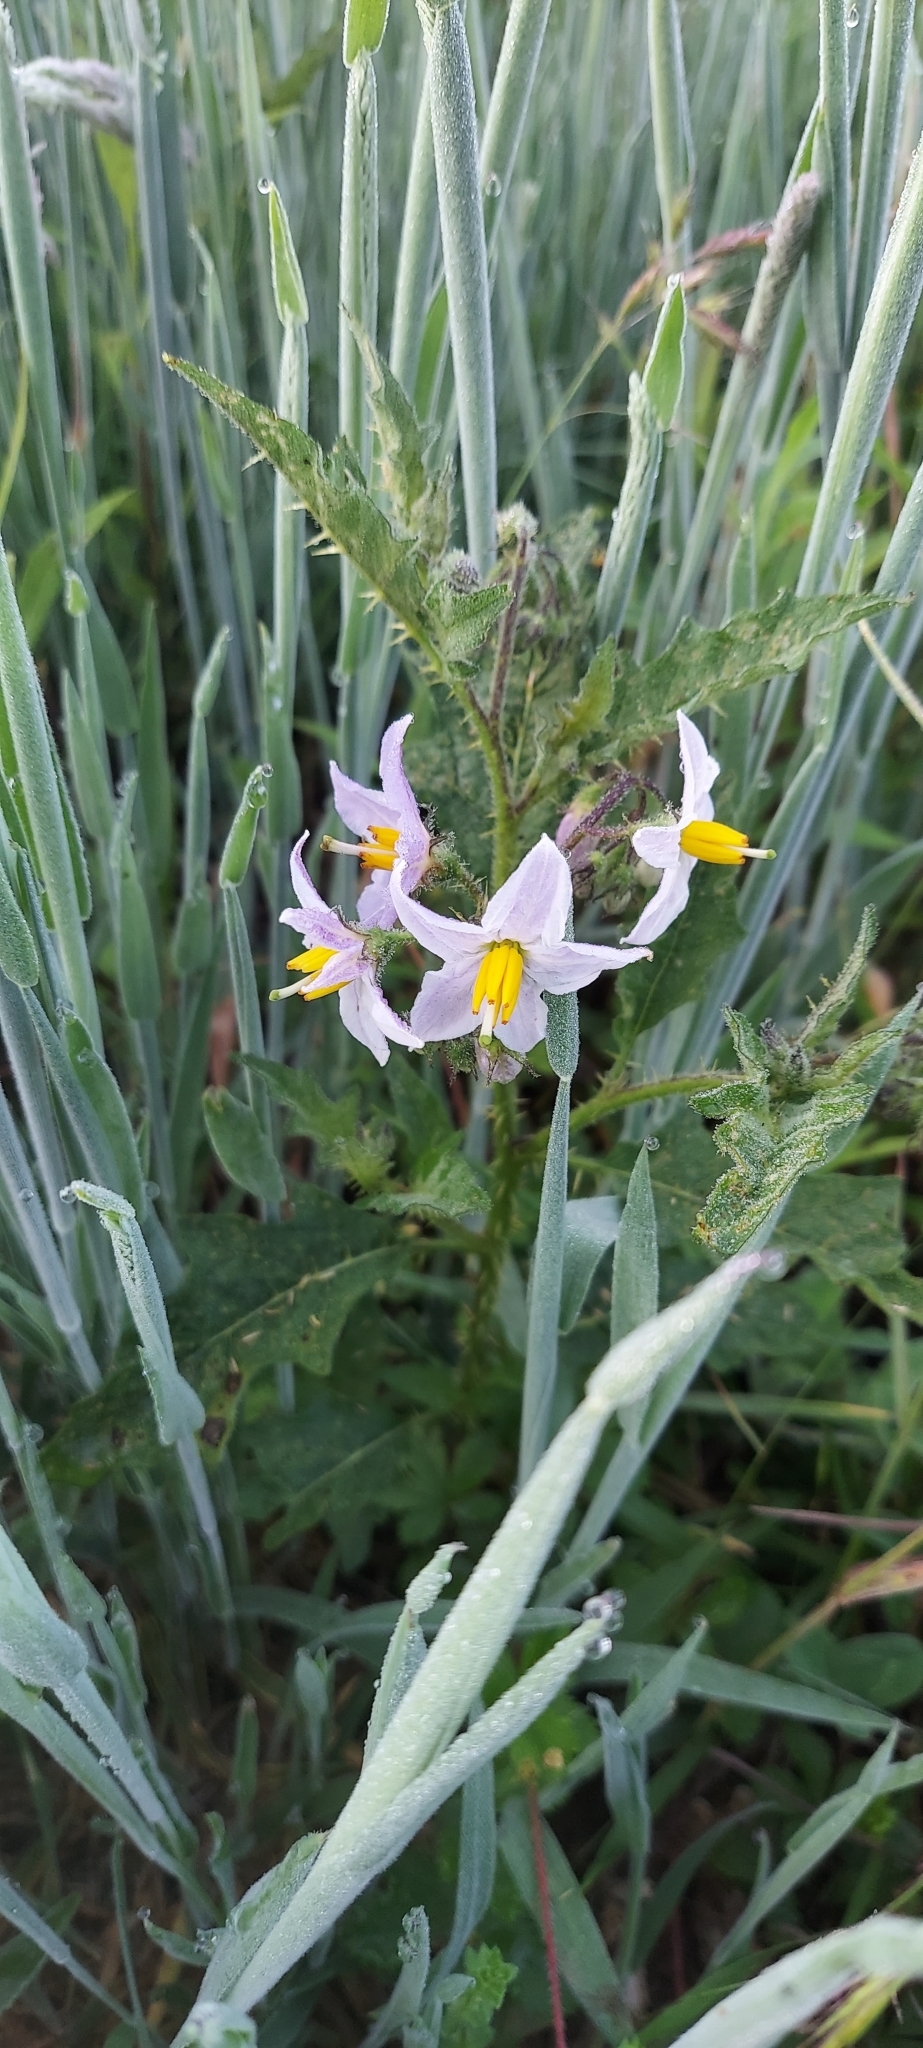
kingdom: Plantae
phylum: Tracheophyta
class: Magnoliopsida
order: Solanales
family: Solanaceae
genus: Solanum
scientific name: Solanum carolinense
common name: Horse-nettle
